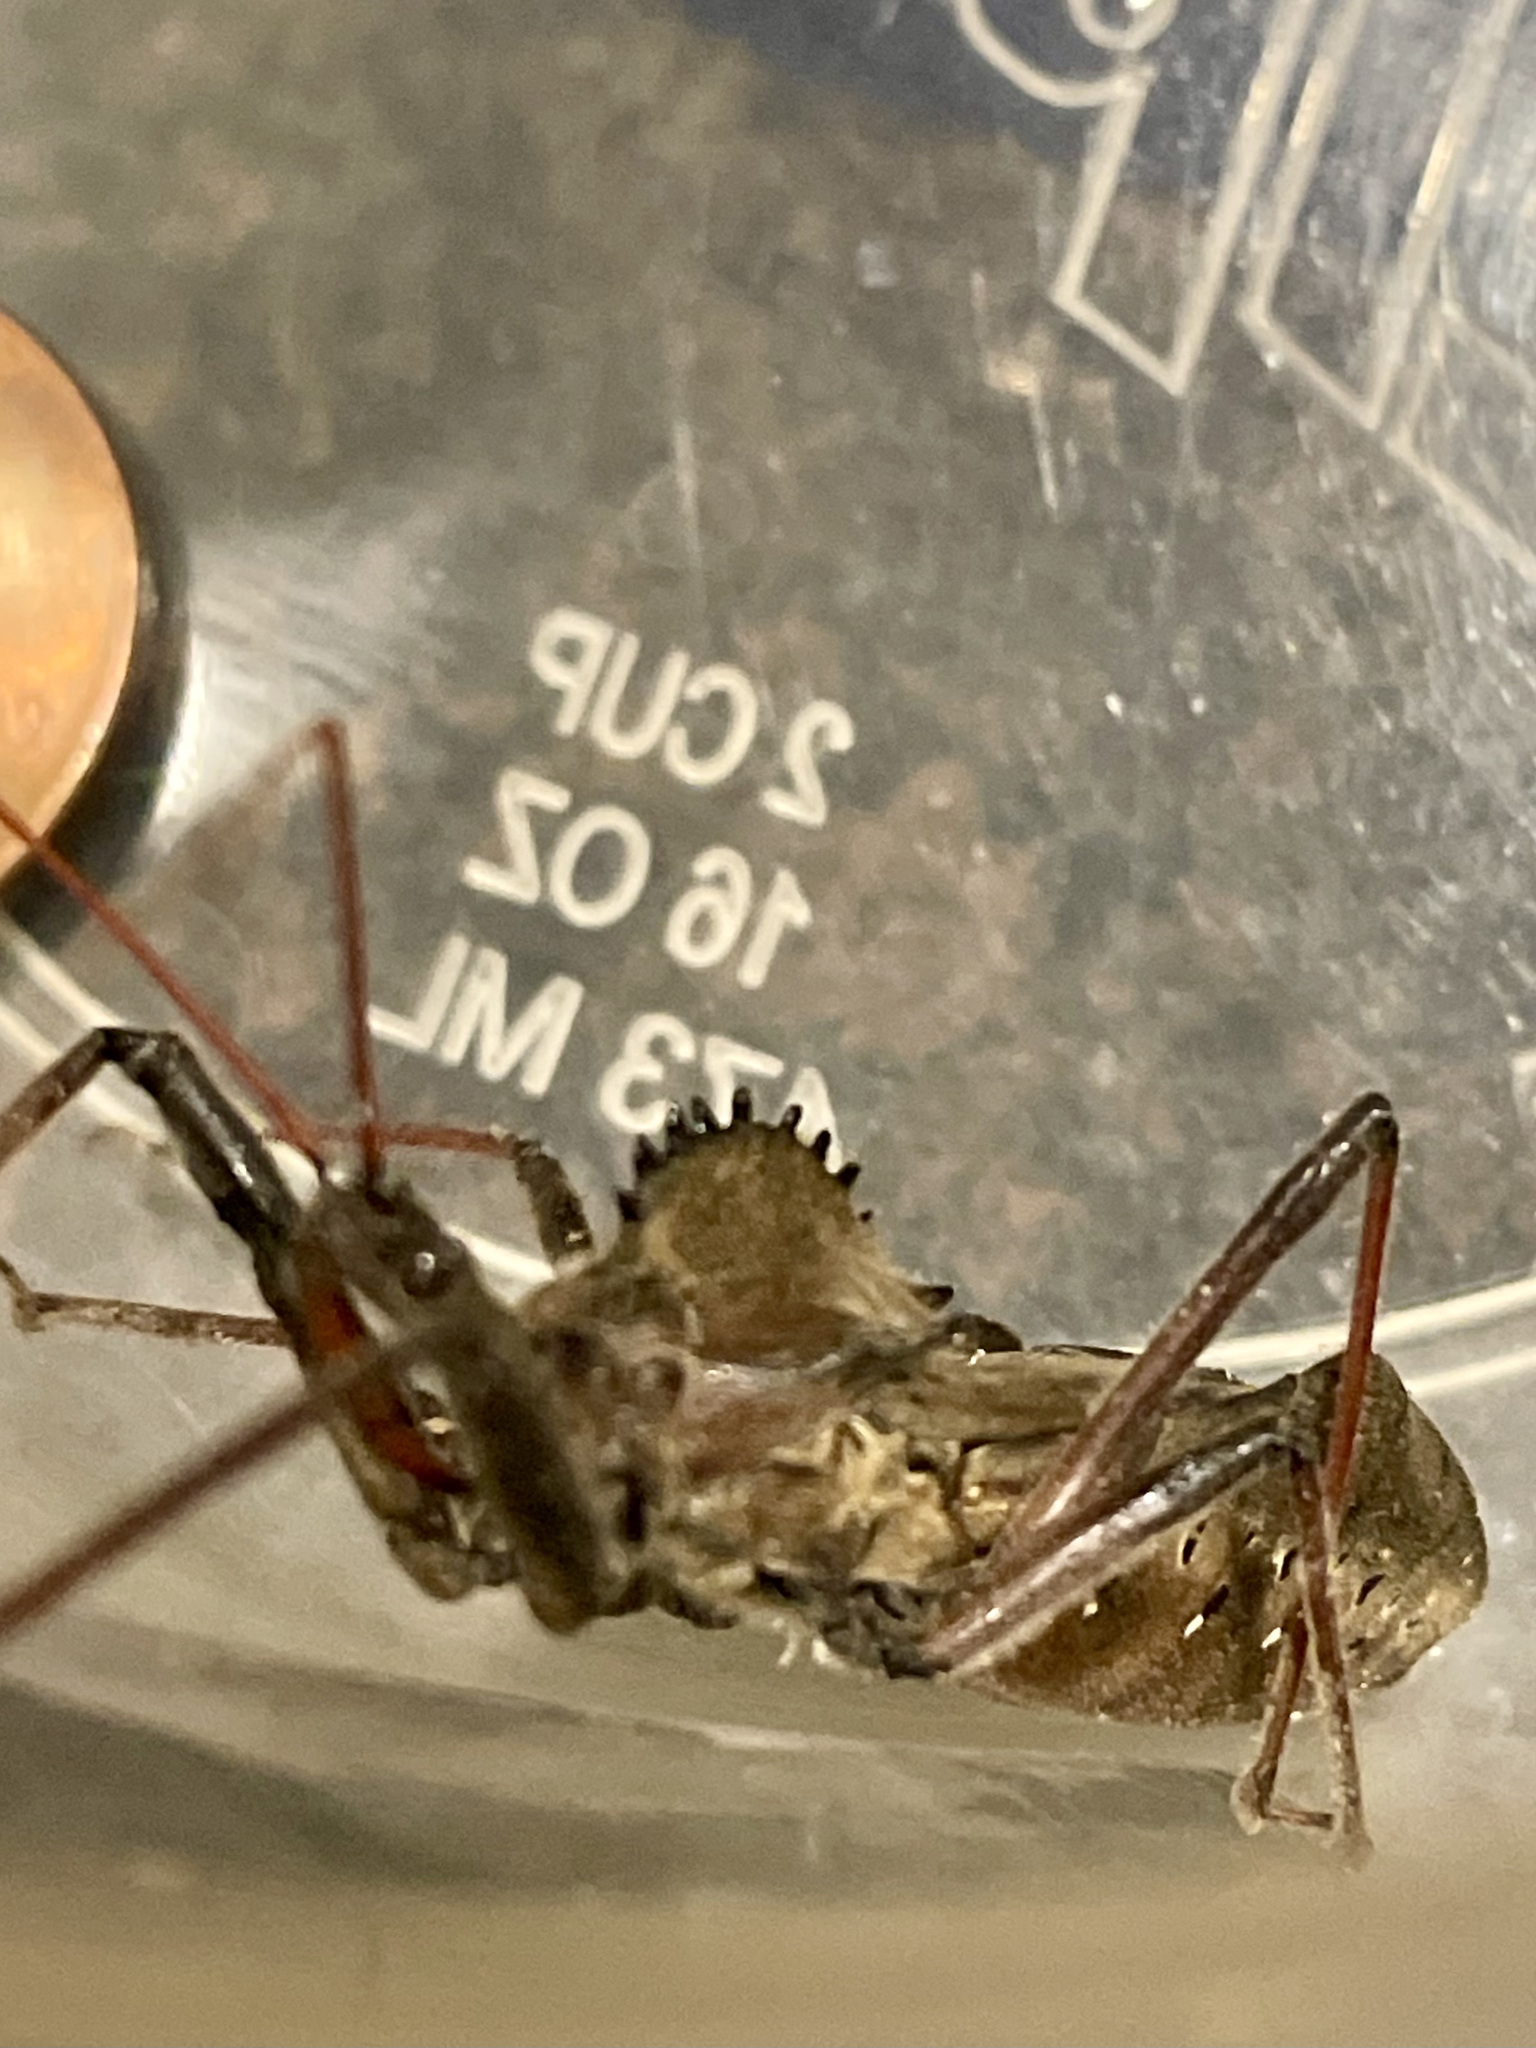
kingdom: Animalia
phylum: Arthropoda
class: Insecta
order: Hemiptera
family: Reduviidae
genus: Arilus
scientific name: Arilus cristatus
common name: North american wheel bug
